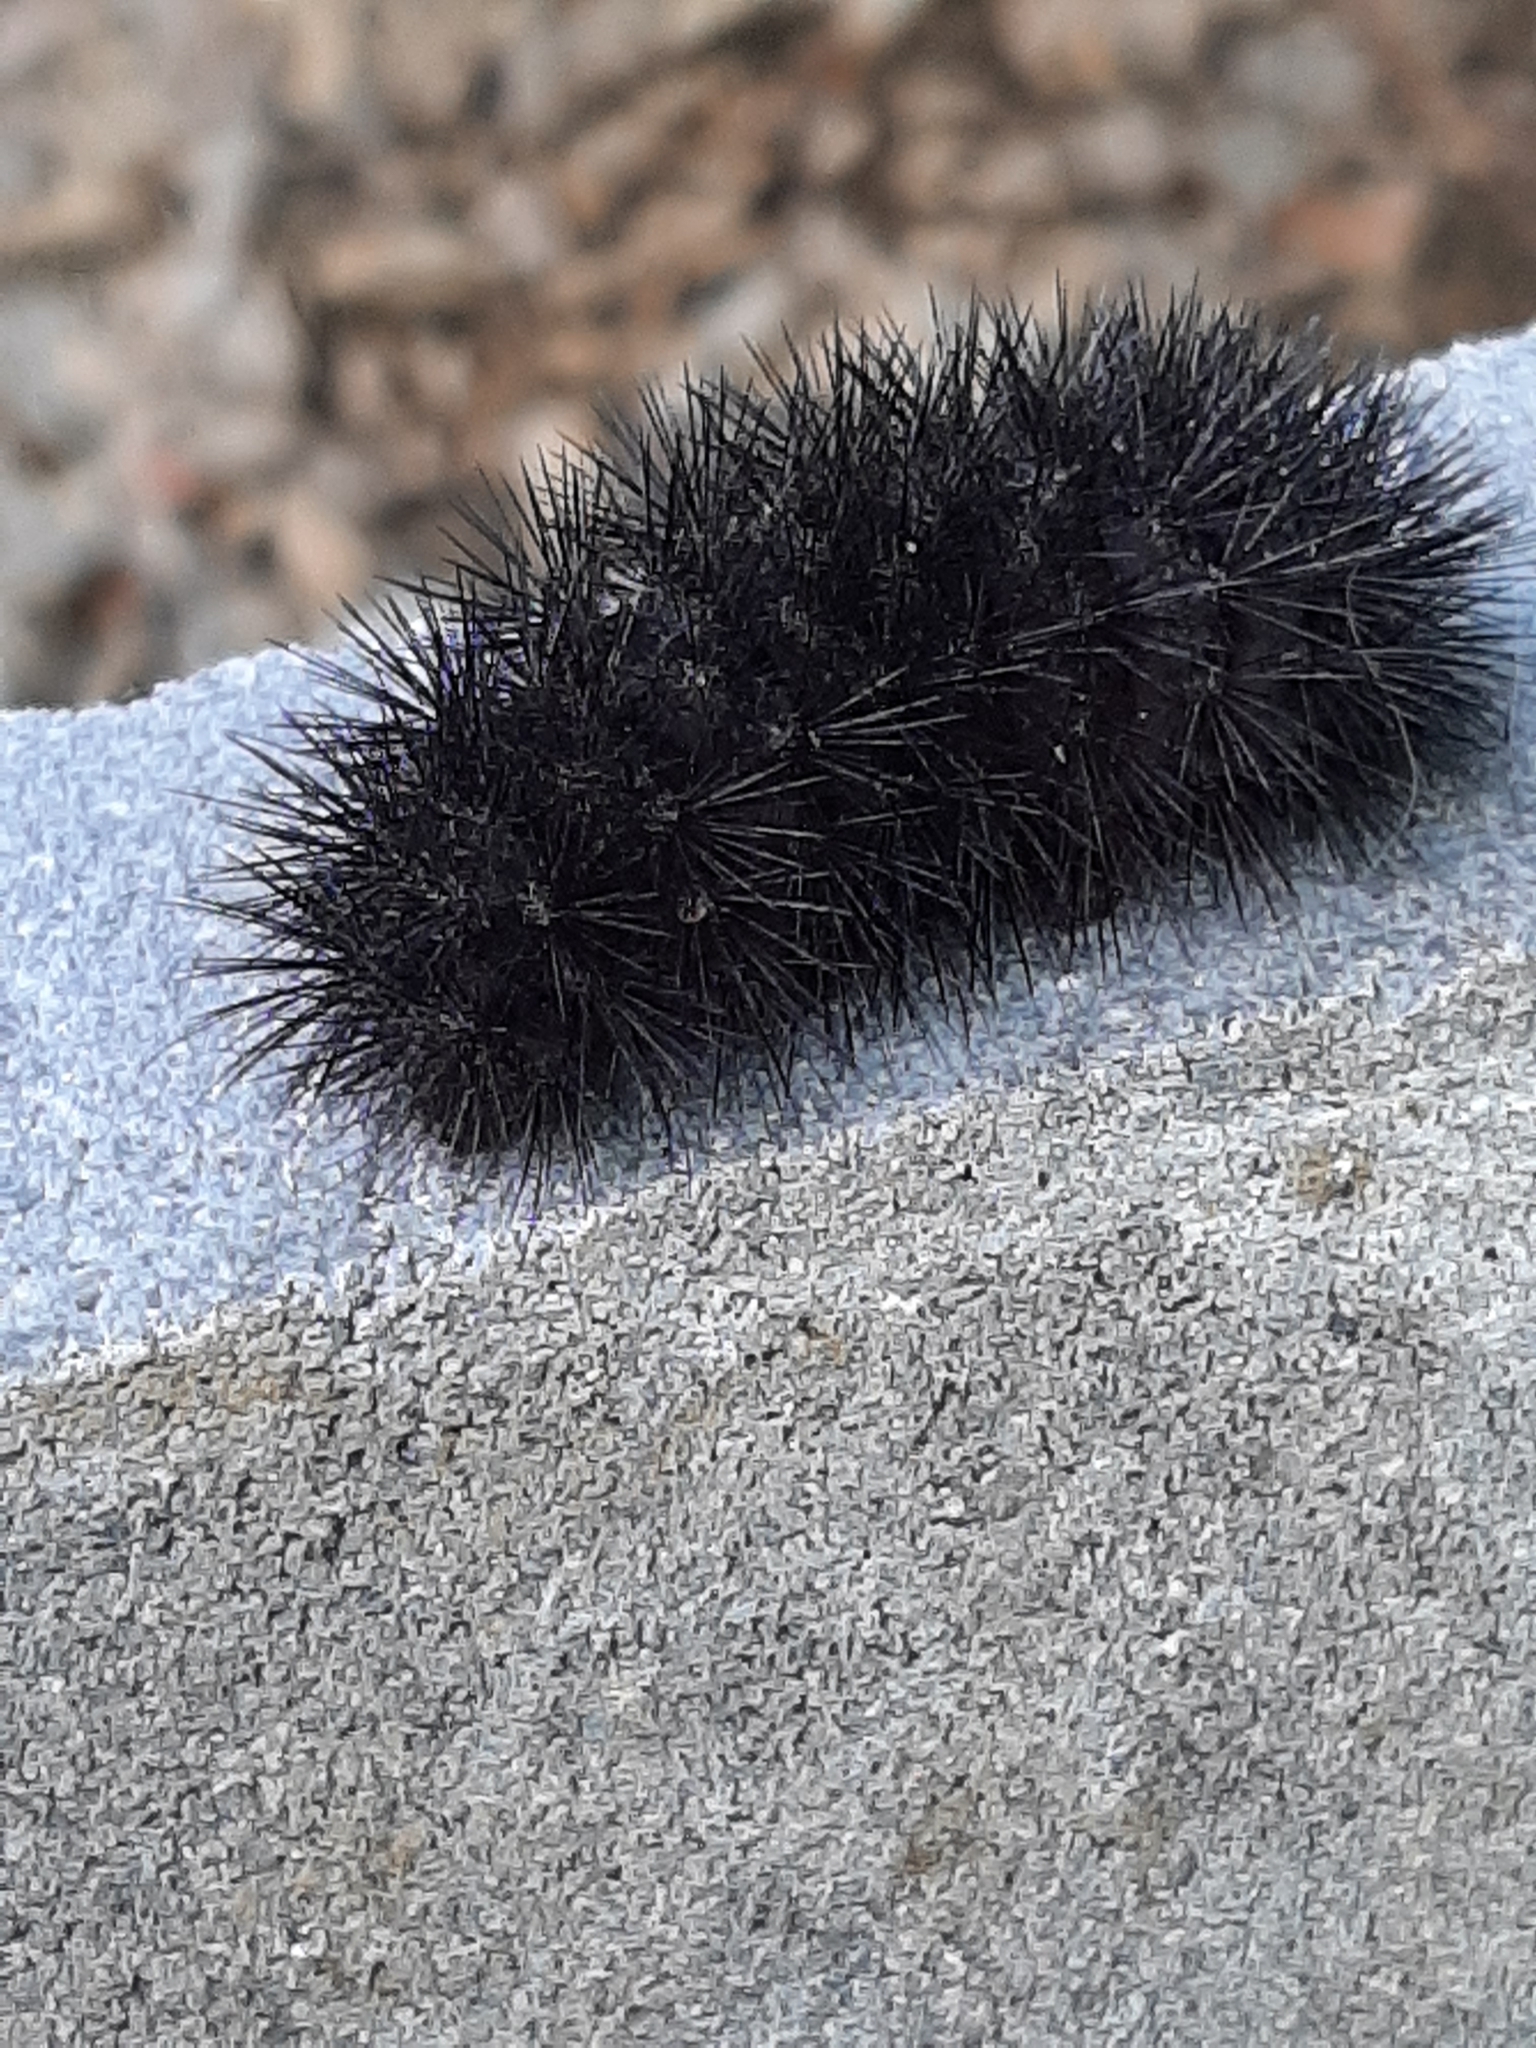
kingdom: Animalia
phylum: Arthropoda
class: Insecta
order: Lepidoptera
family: Erebidae
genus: Hypercompe
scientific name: Hypercompe scribonia
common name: Giant leopard moth
